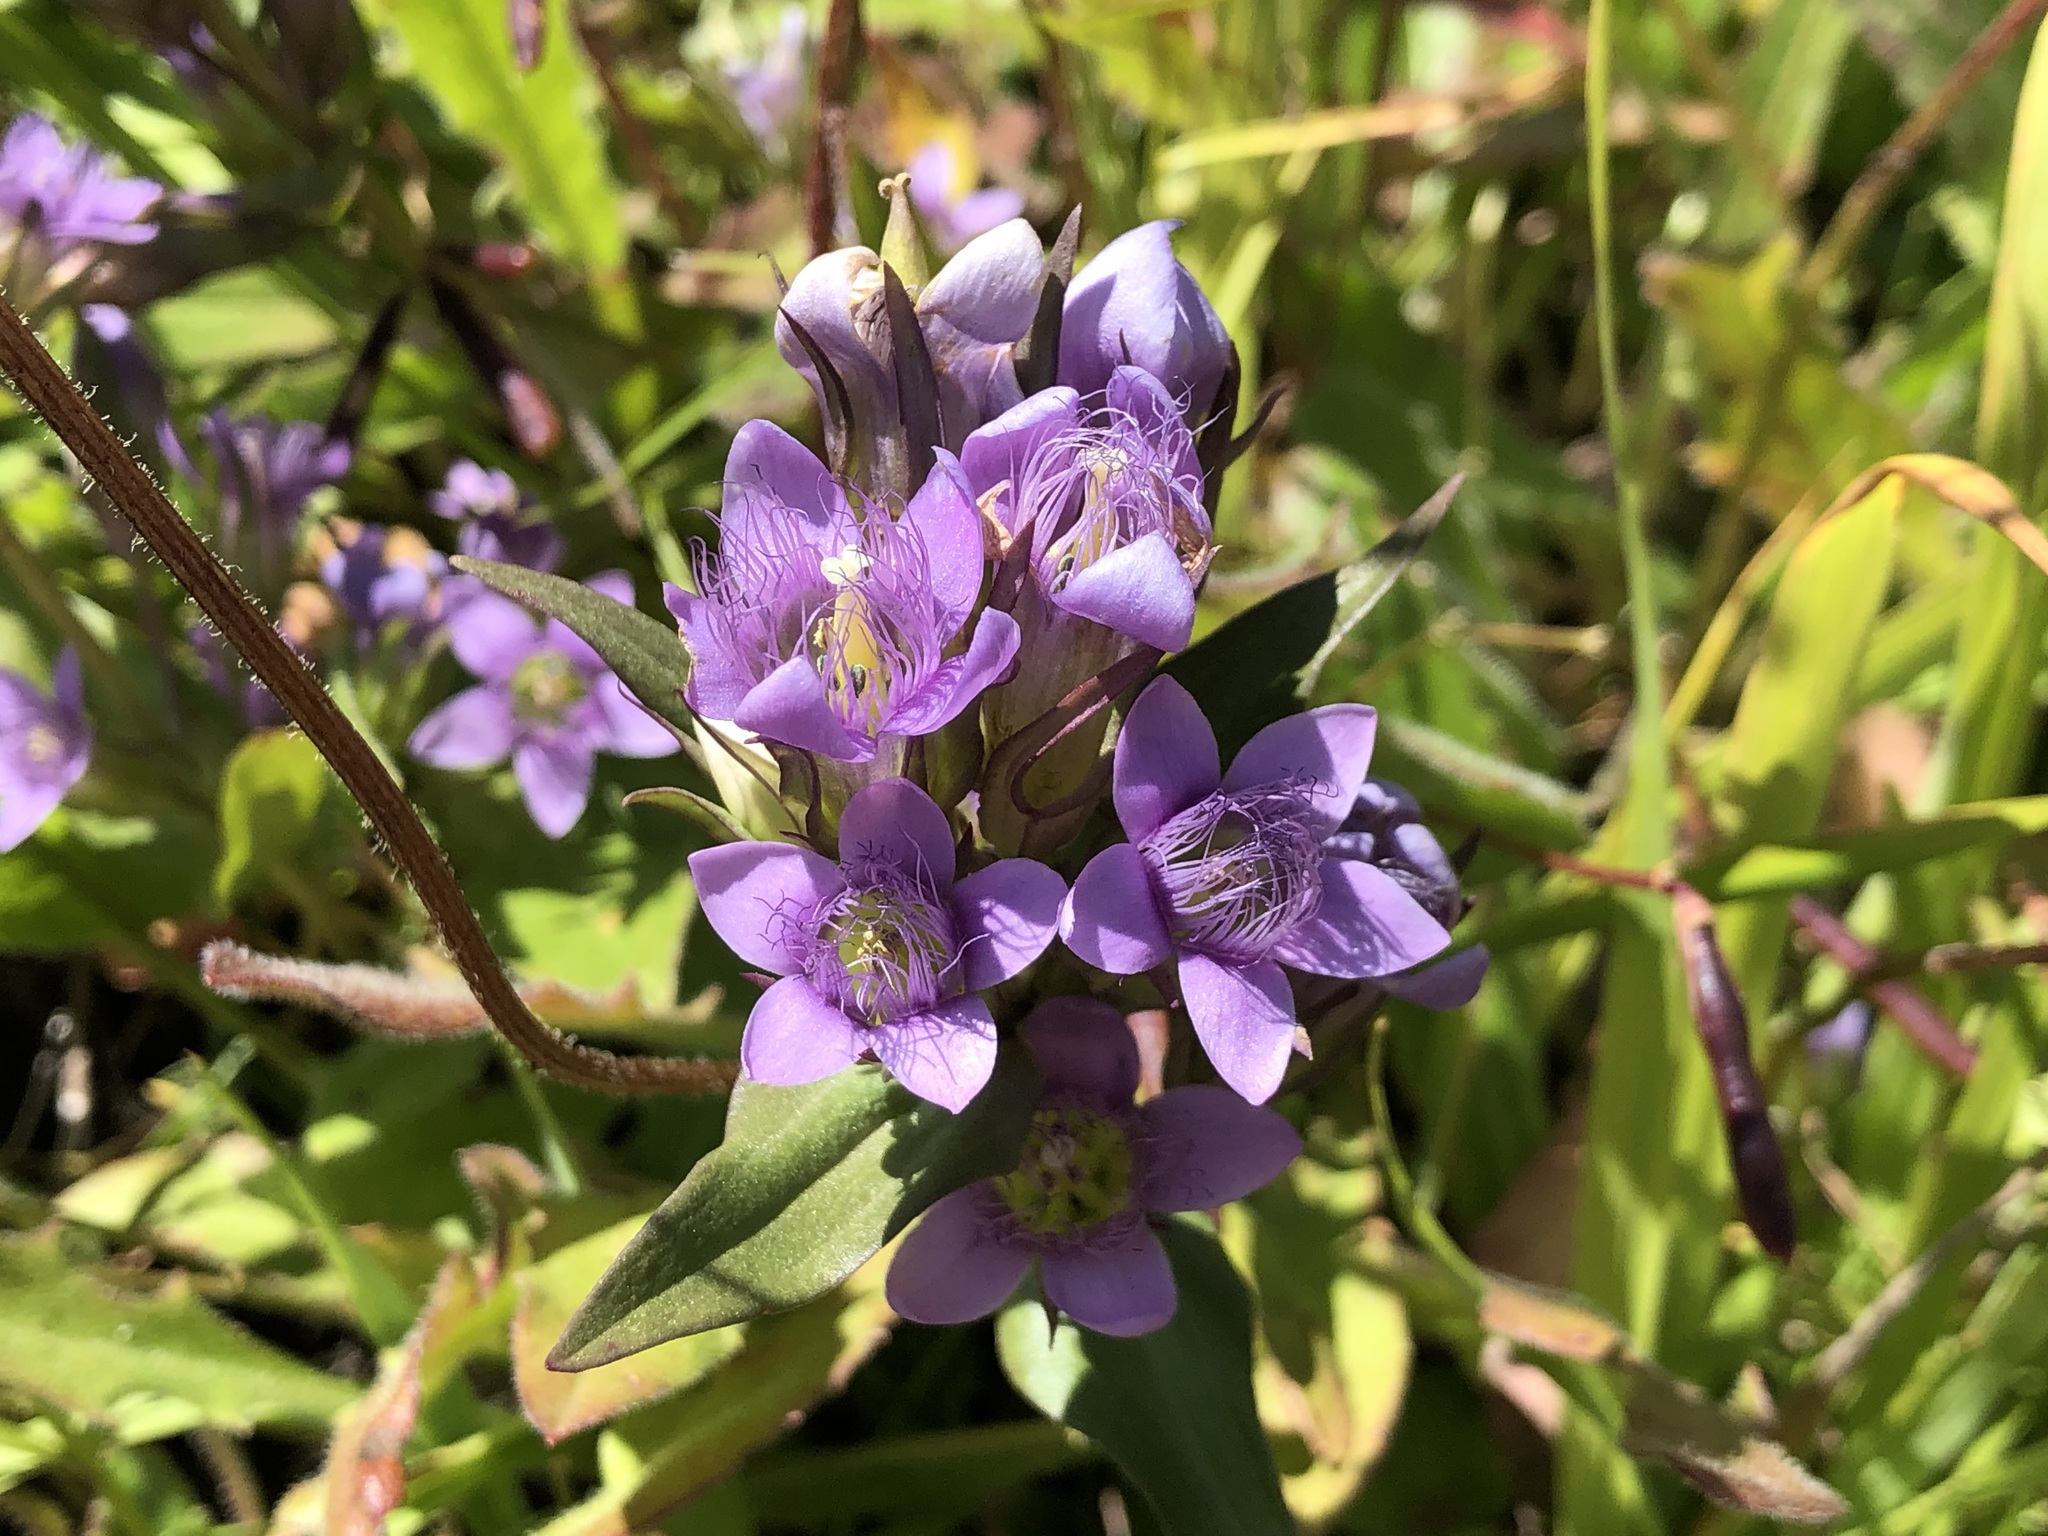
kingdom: Plantae
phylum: Tracheophyta
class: Magnoliopsida
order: Gentianales
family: Gentianaceae
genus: Gentianella
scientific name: Gentianella germanica
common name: Chiltern-gentian
